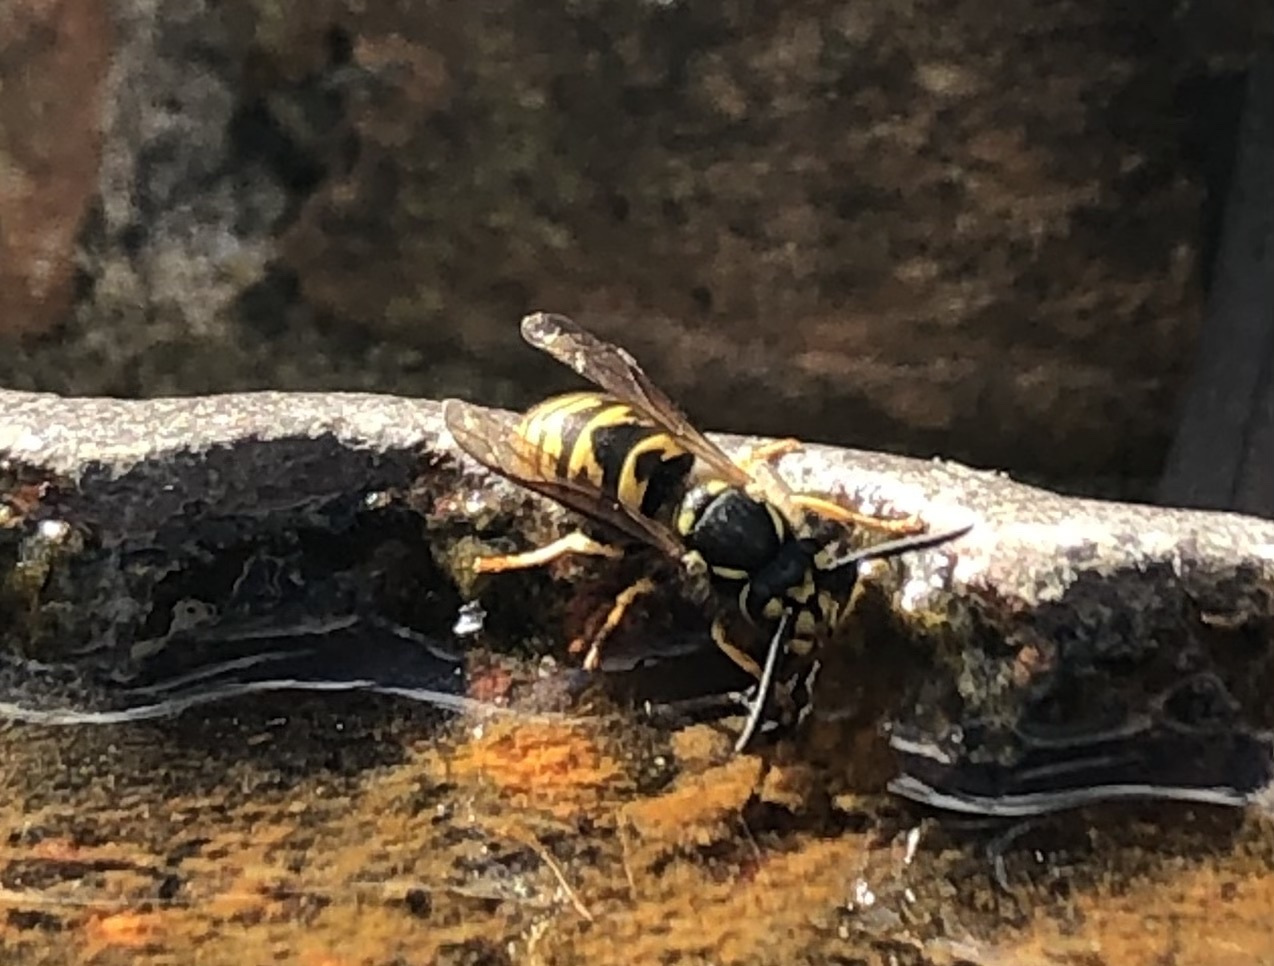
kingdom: Animalia
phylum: Arthropoda
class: Insecta
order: Hymenoptera
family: Vespidae
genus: Vespula
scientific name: Vespula vulgaris
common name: Common wasp
